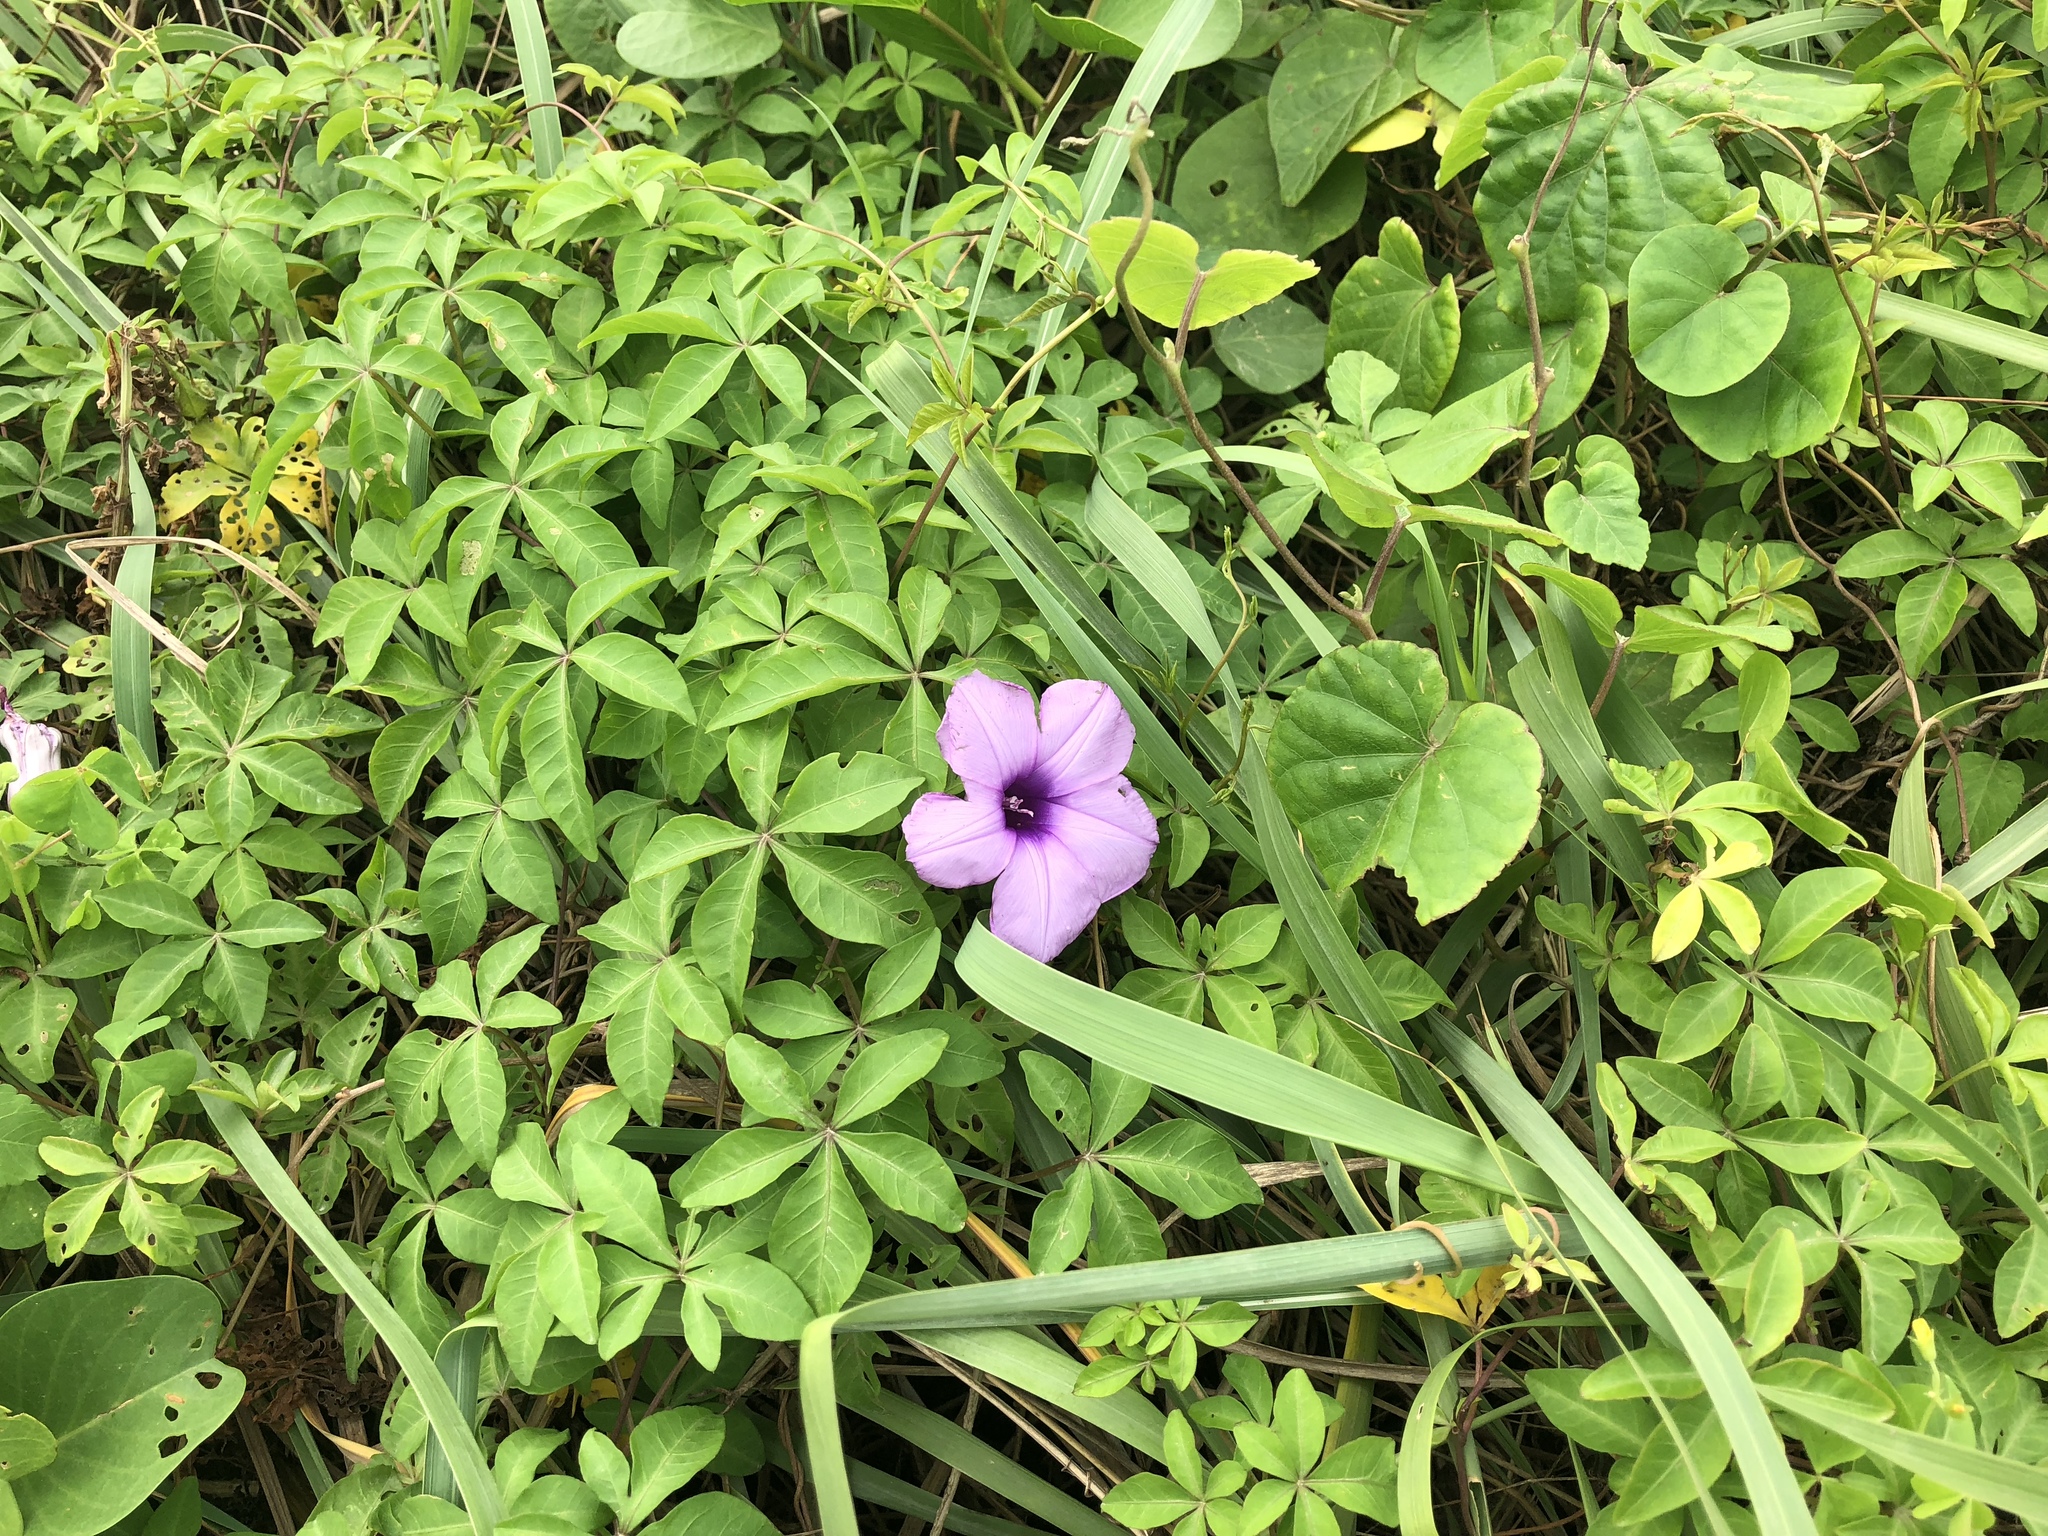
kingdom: Plantae
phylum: Tracheophyta
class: Magnoliopsida
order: Solanales
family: Convolvulaceae
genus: Ipomoea
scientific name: Ipomoea cairica
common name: Mile a minute vine
